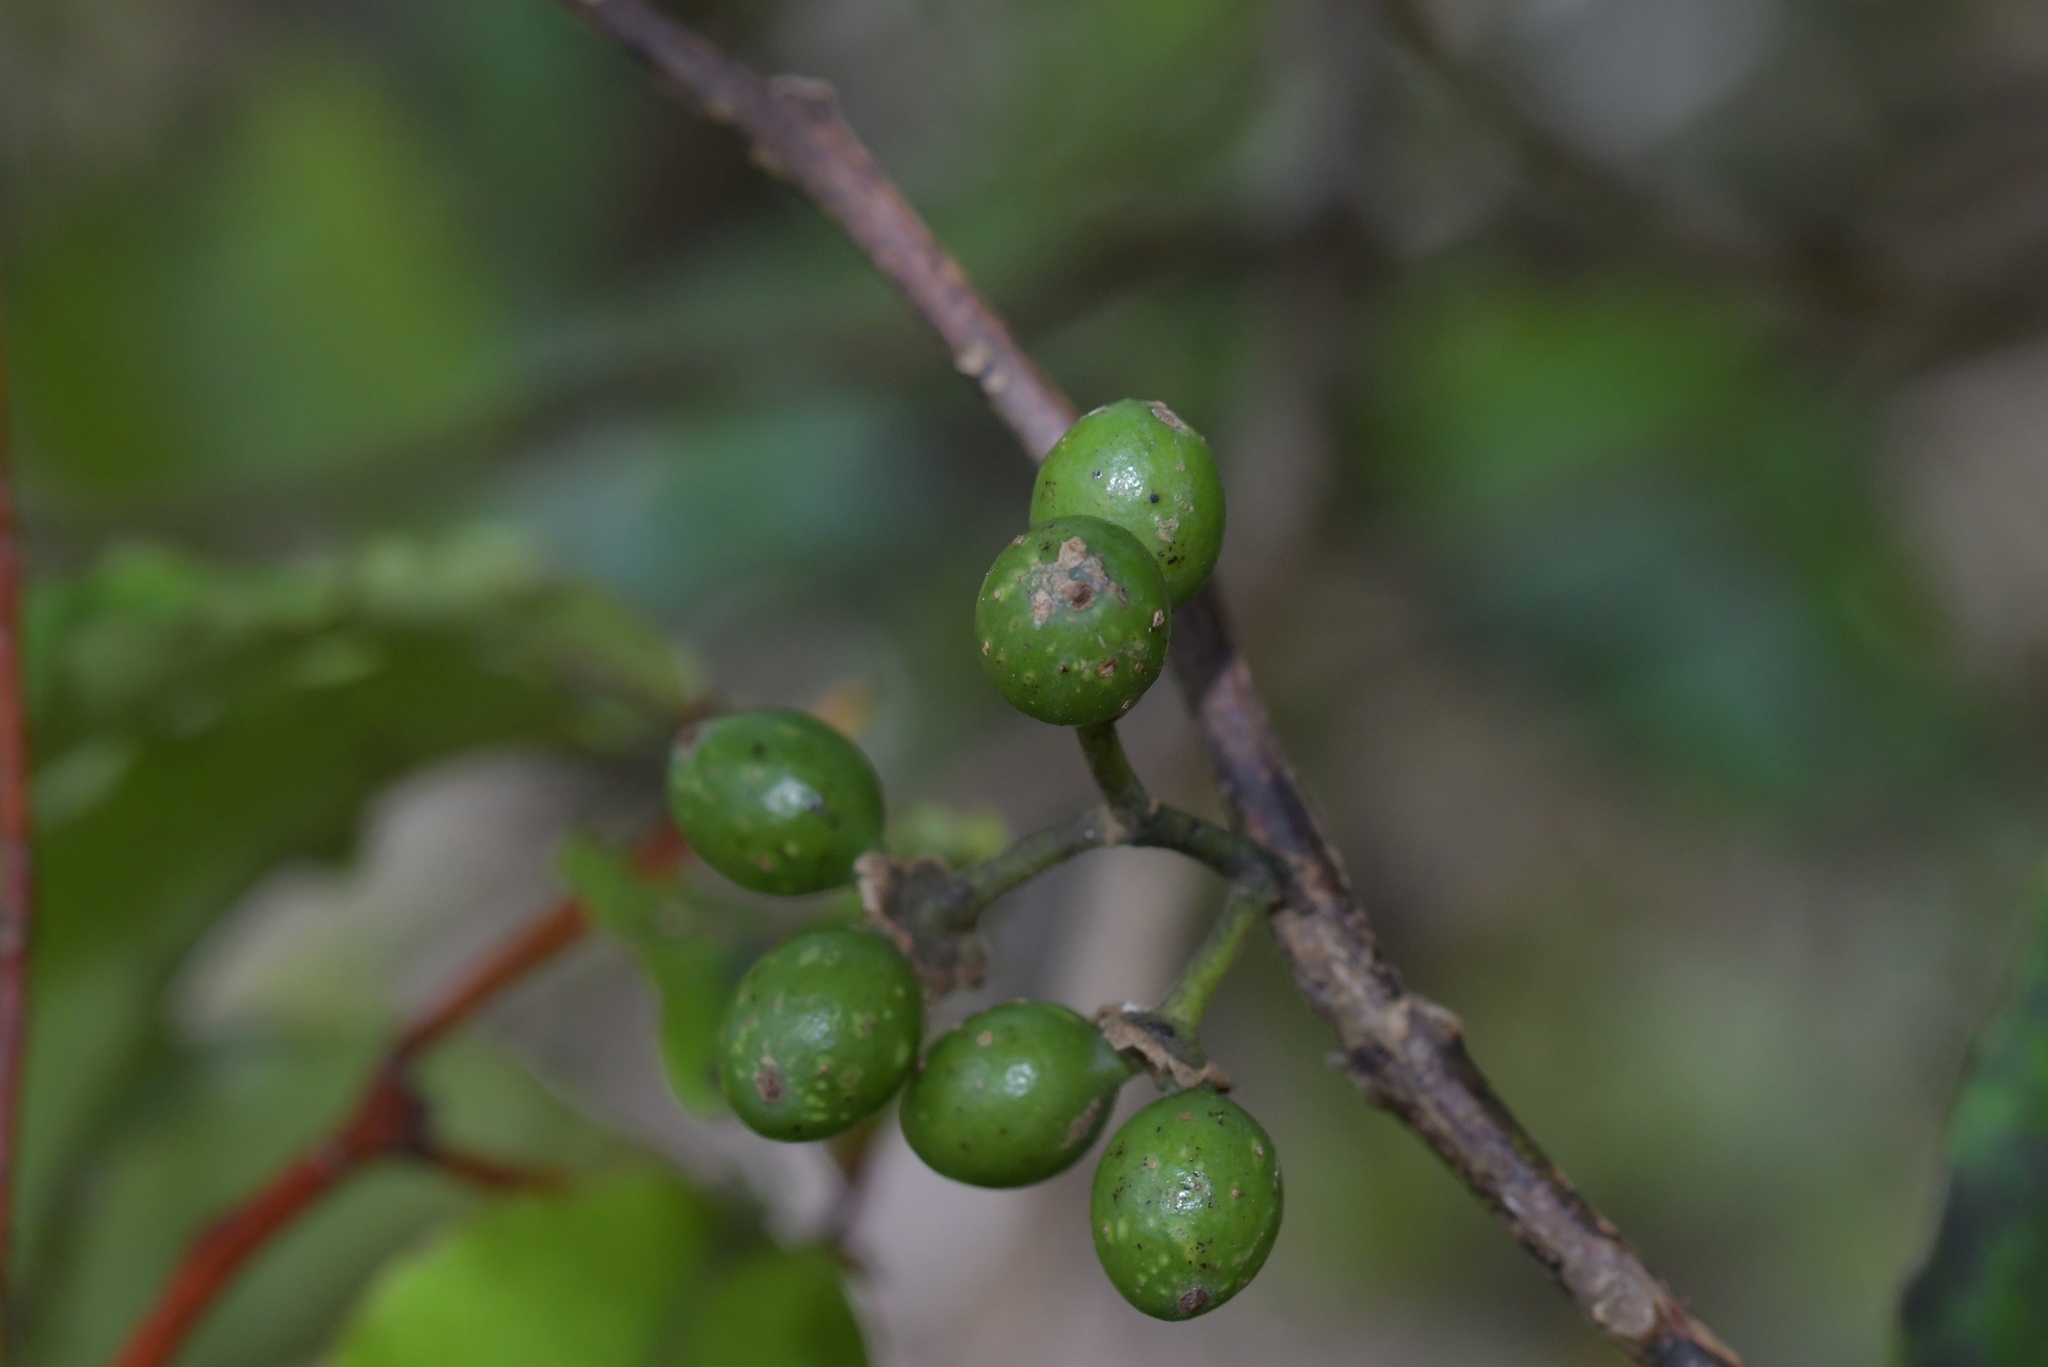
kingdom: Plantae
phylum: Tracheophyta
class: Magnoliopsida
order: Ericales
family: Primulaceae
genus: Myrsine
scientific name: Myrsine australis
